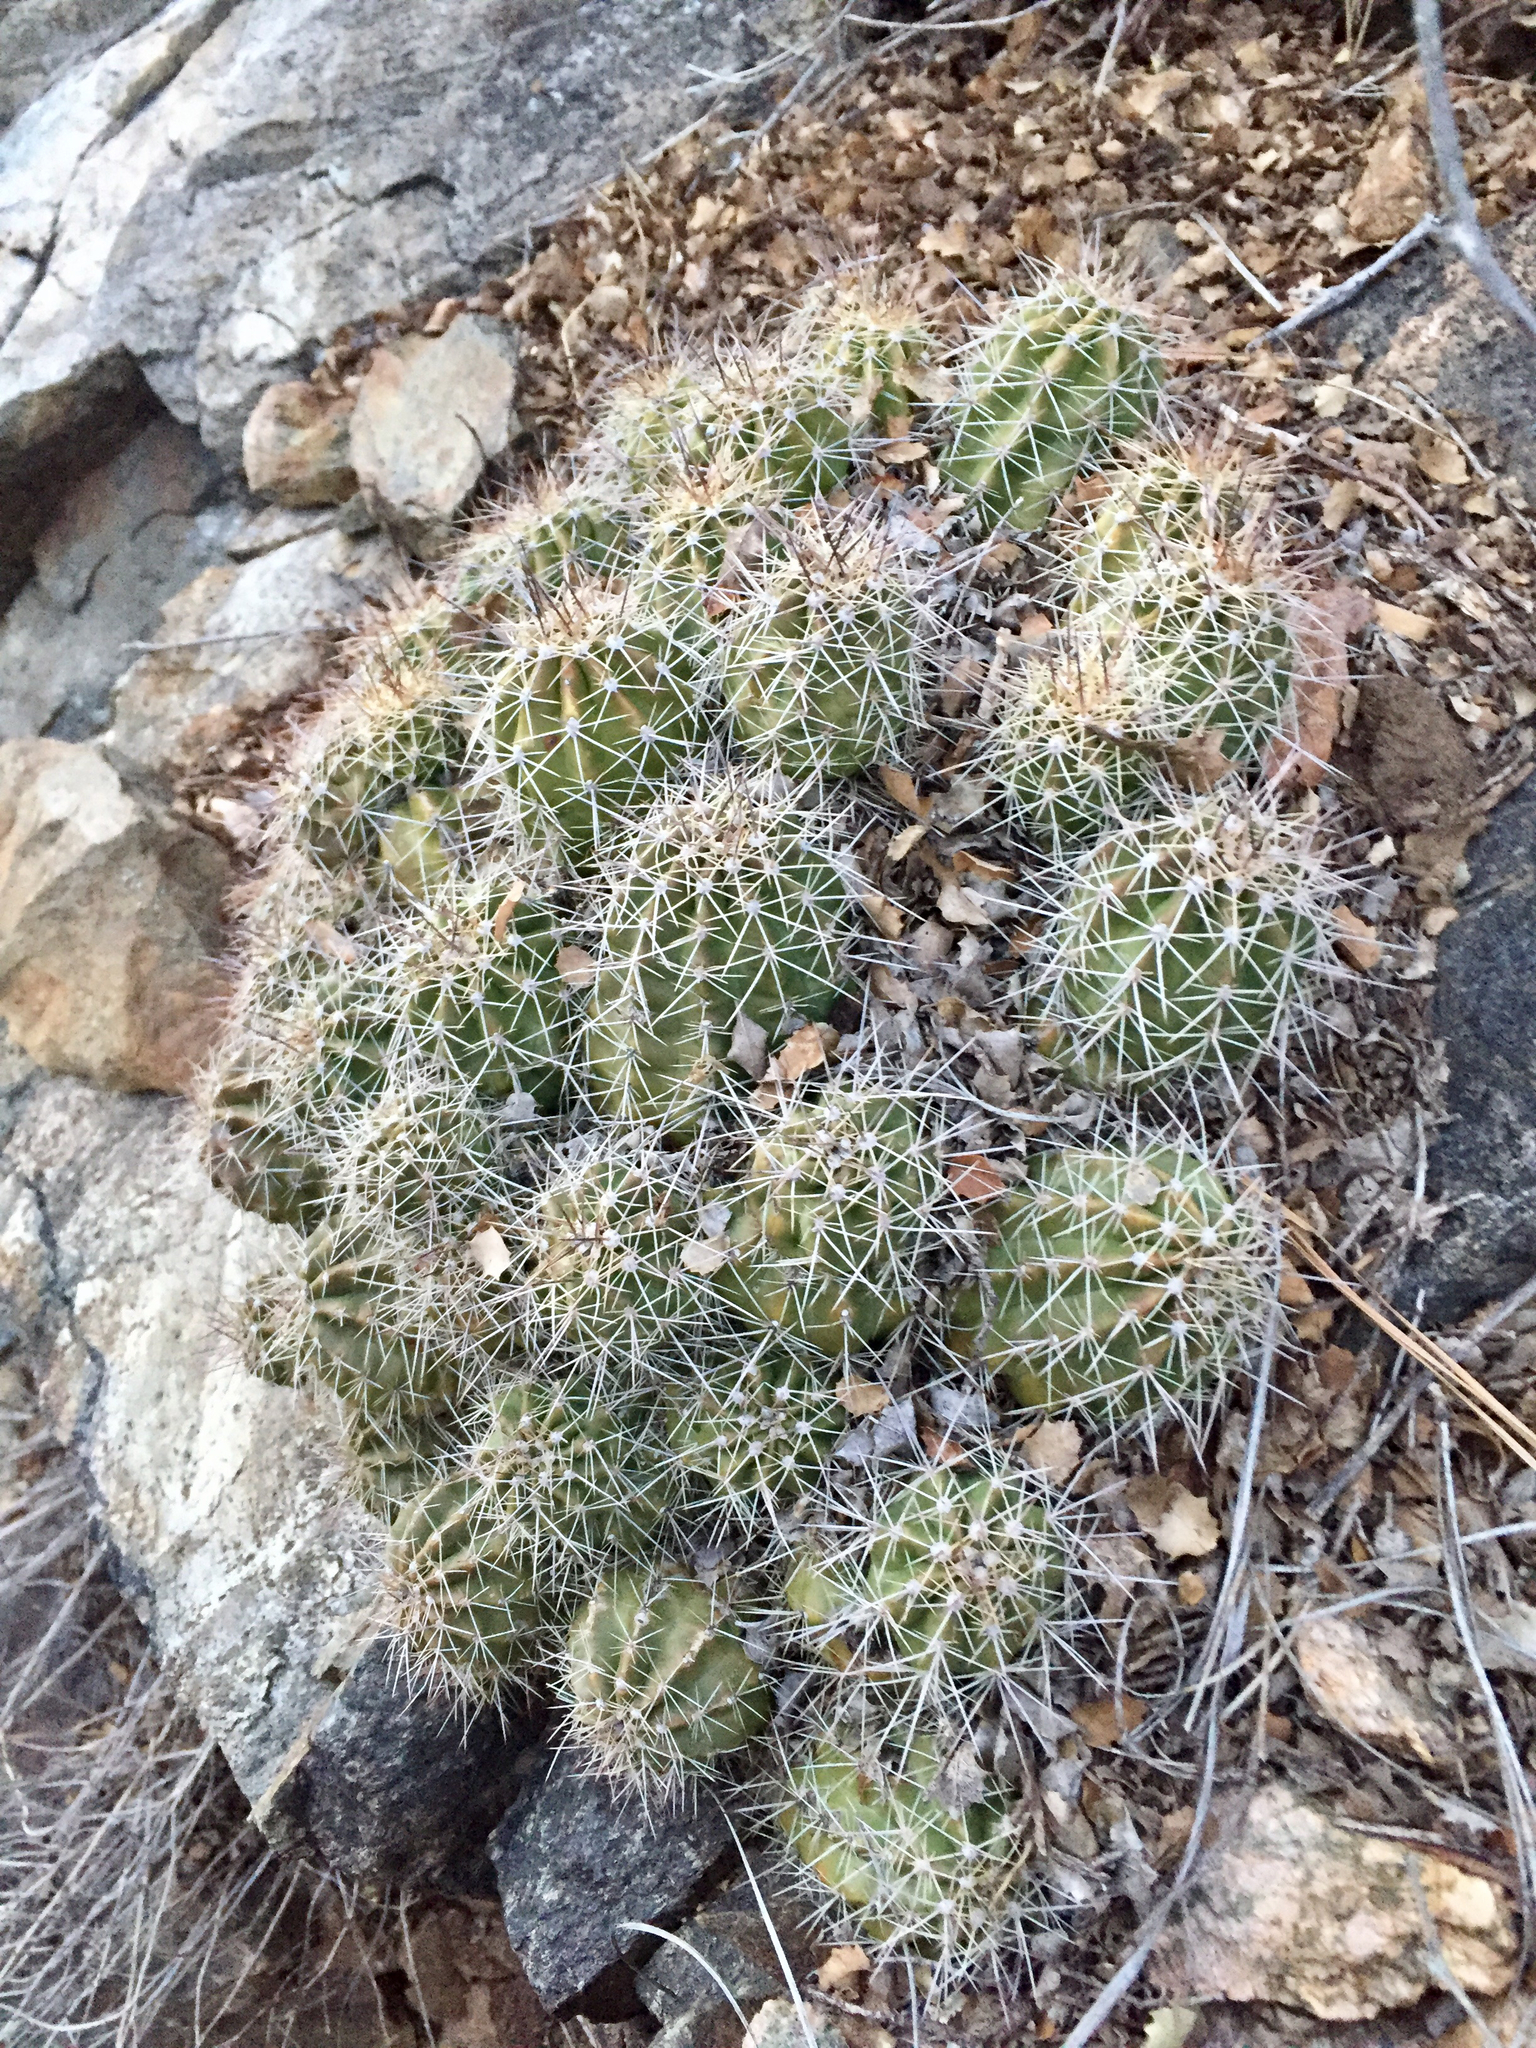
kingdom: Plantae
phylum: Tracheophyta
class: Magnoliopsida
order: Caryophyllales
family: Cactaceae
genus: Echinocereus
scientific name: Echinocereus bakeri
